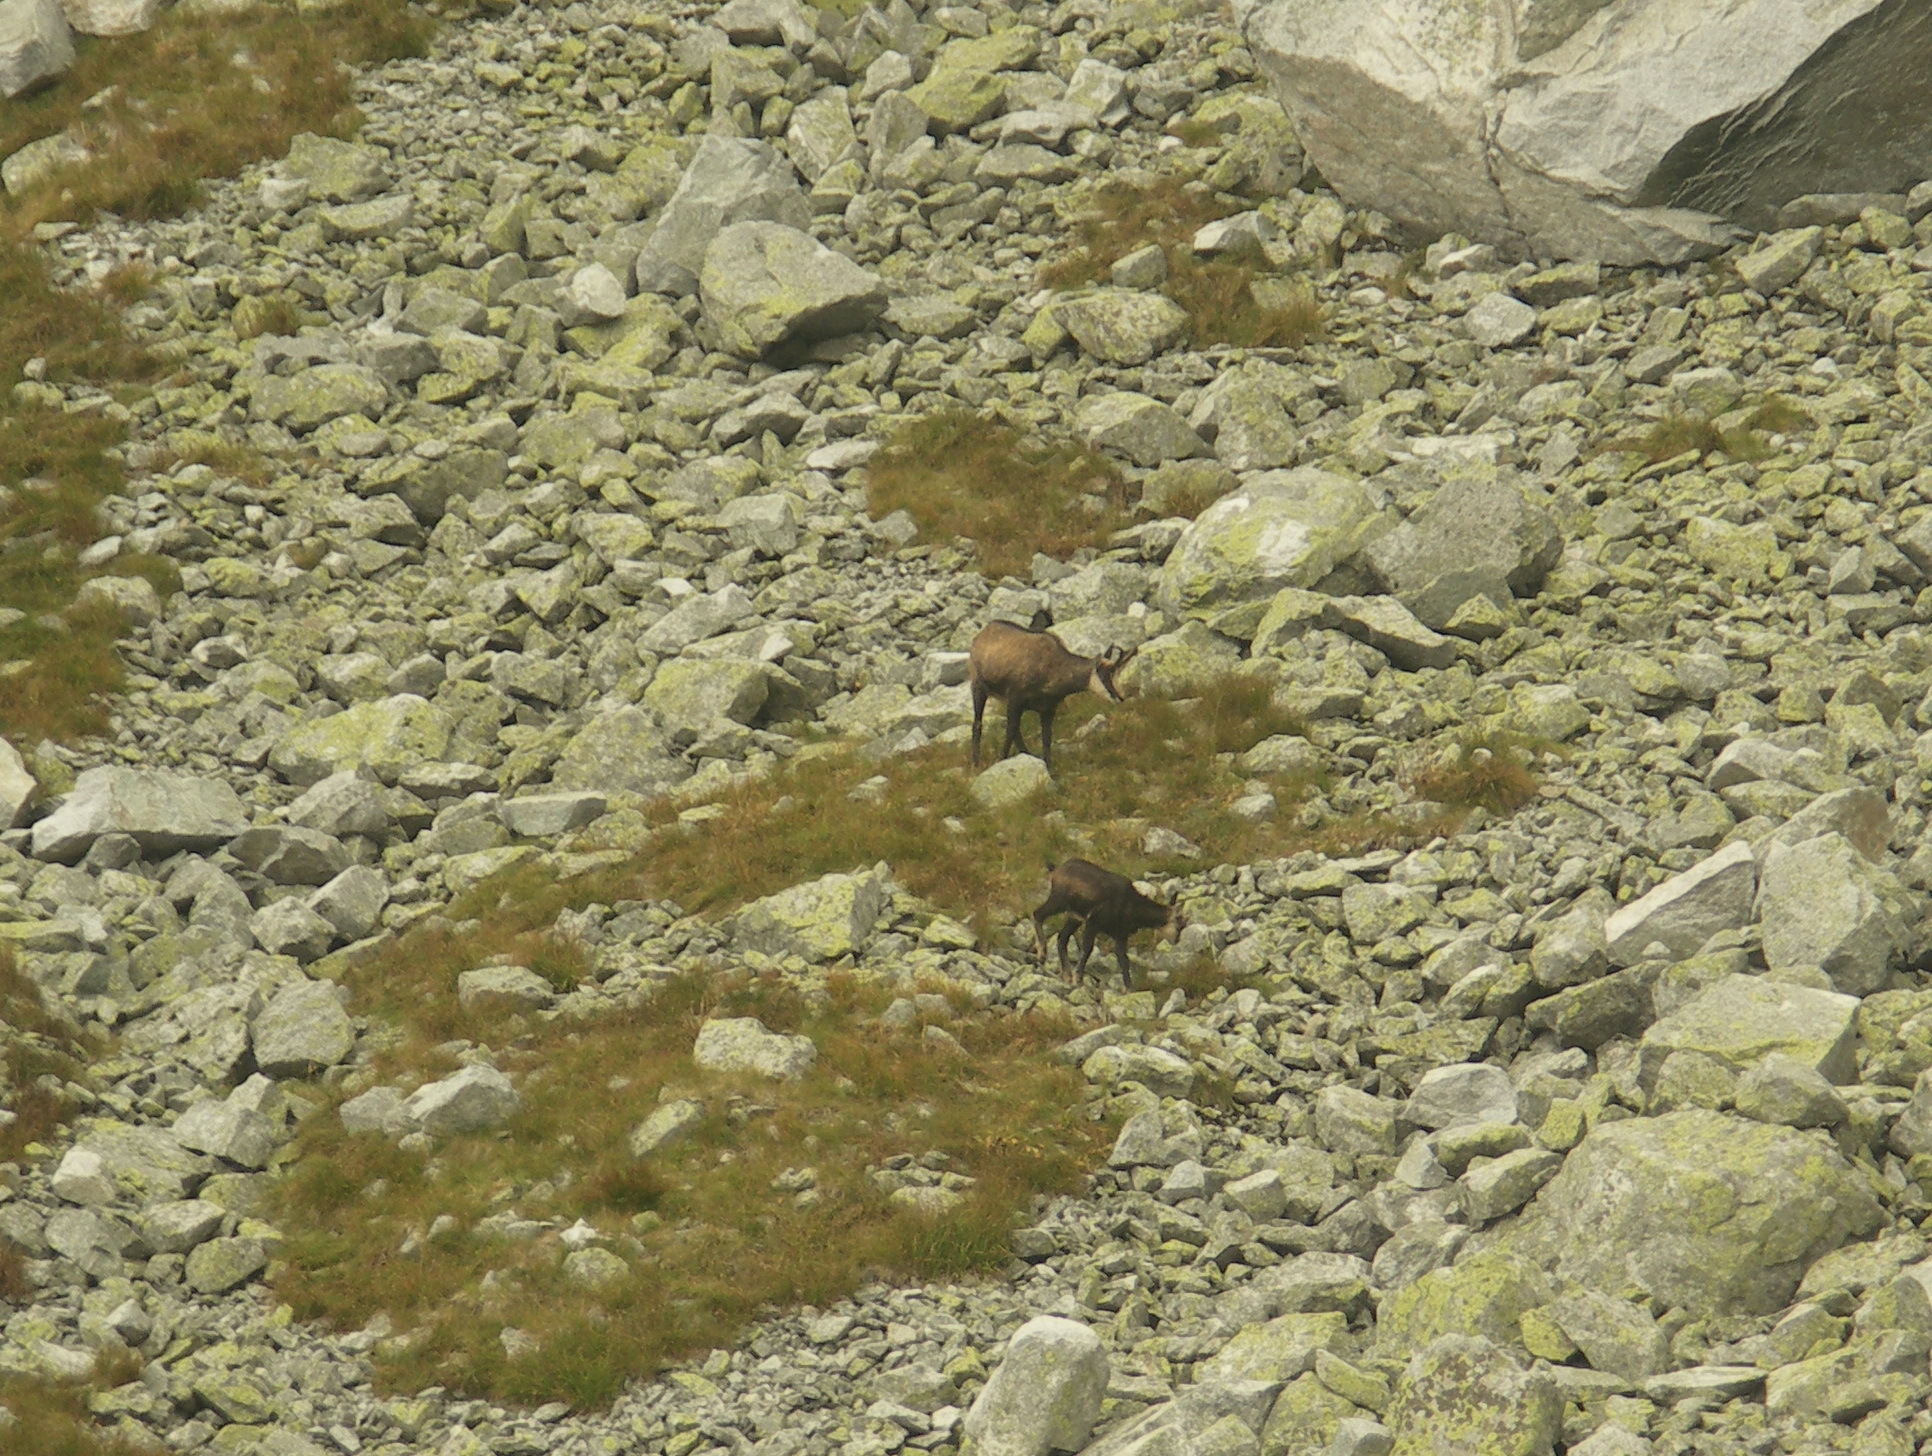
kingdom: Animalia
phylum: Chordata
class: Mammalia
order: Artiodactyla
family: Bovidae
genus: Rupicapra
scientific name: Rupicapra rupicapra
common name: Chamois
